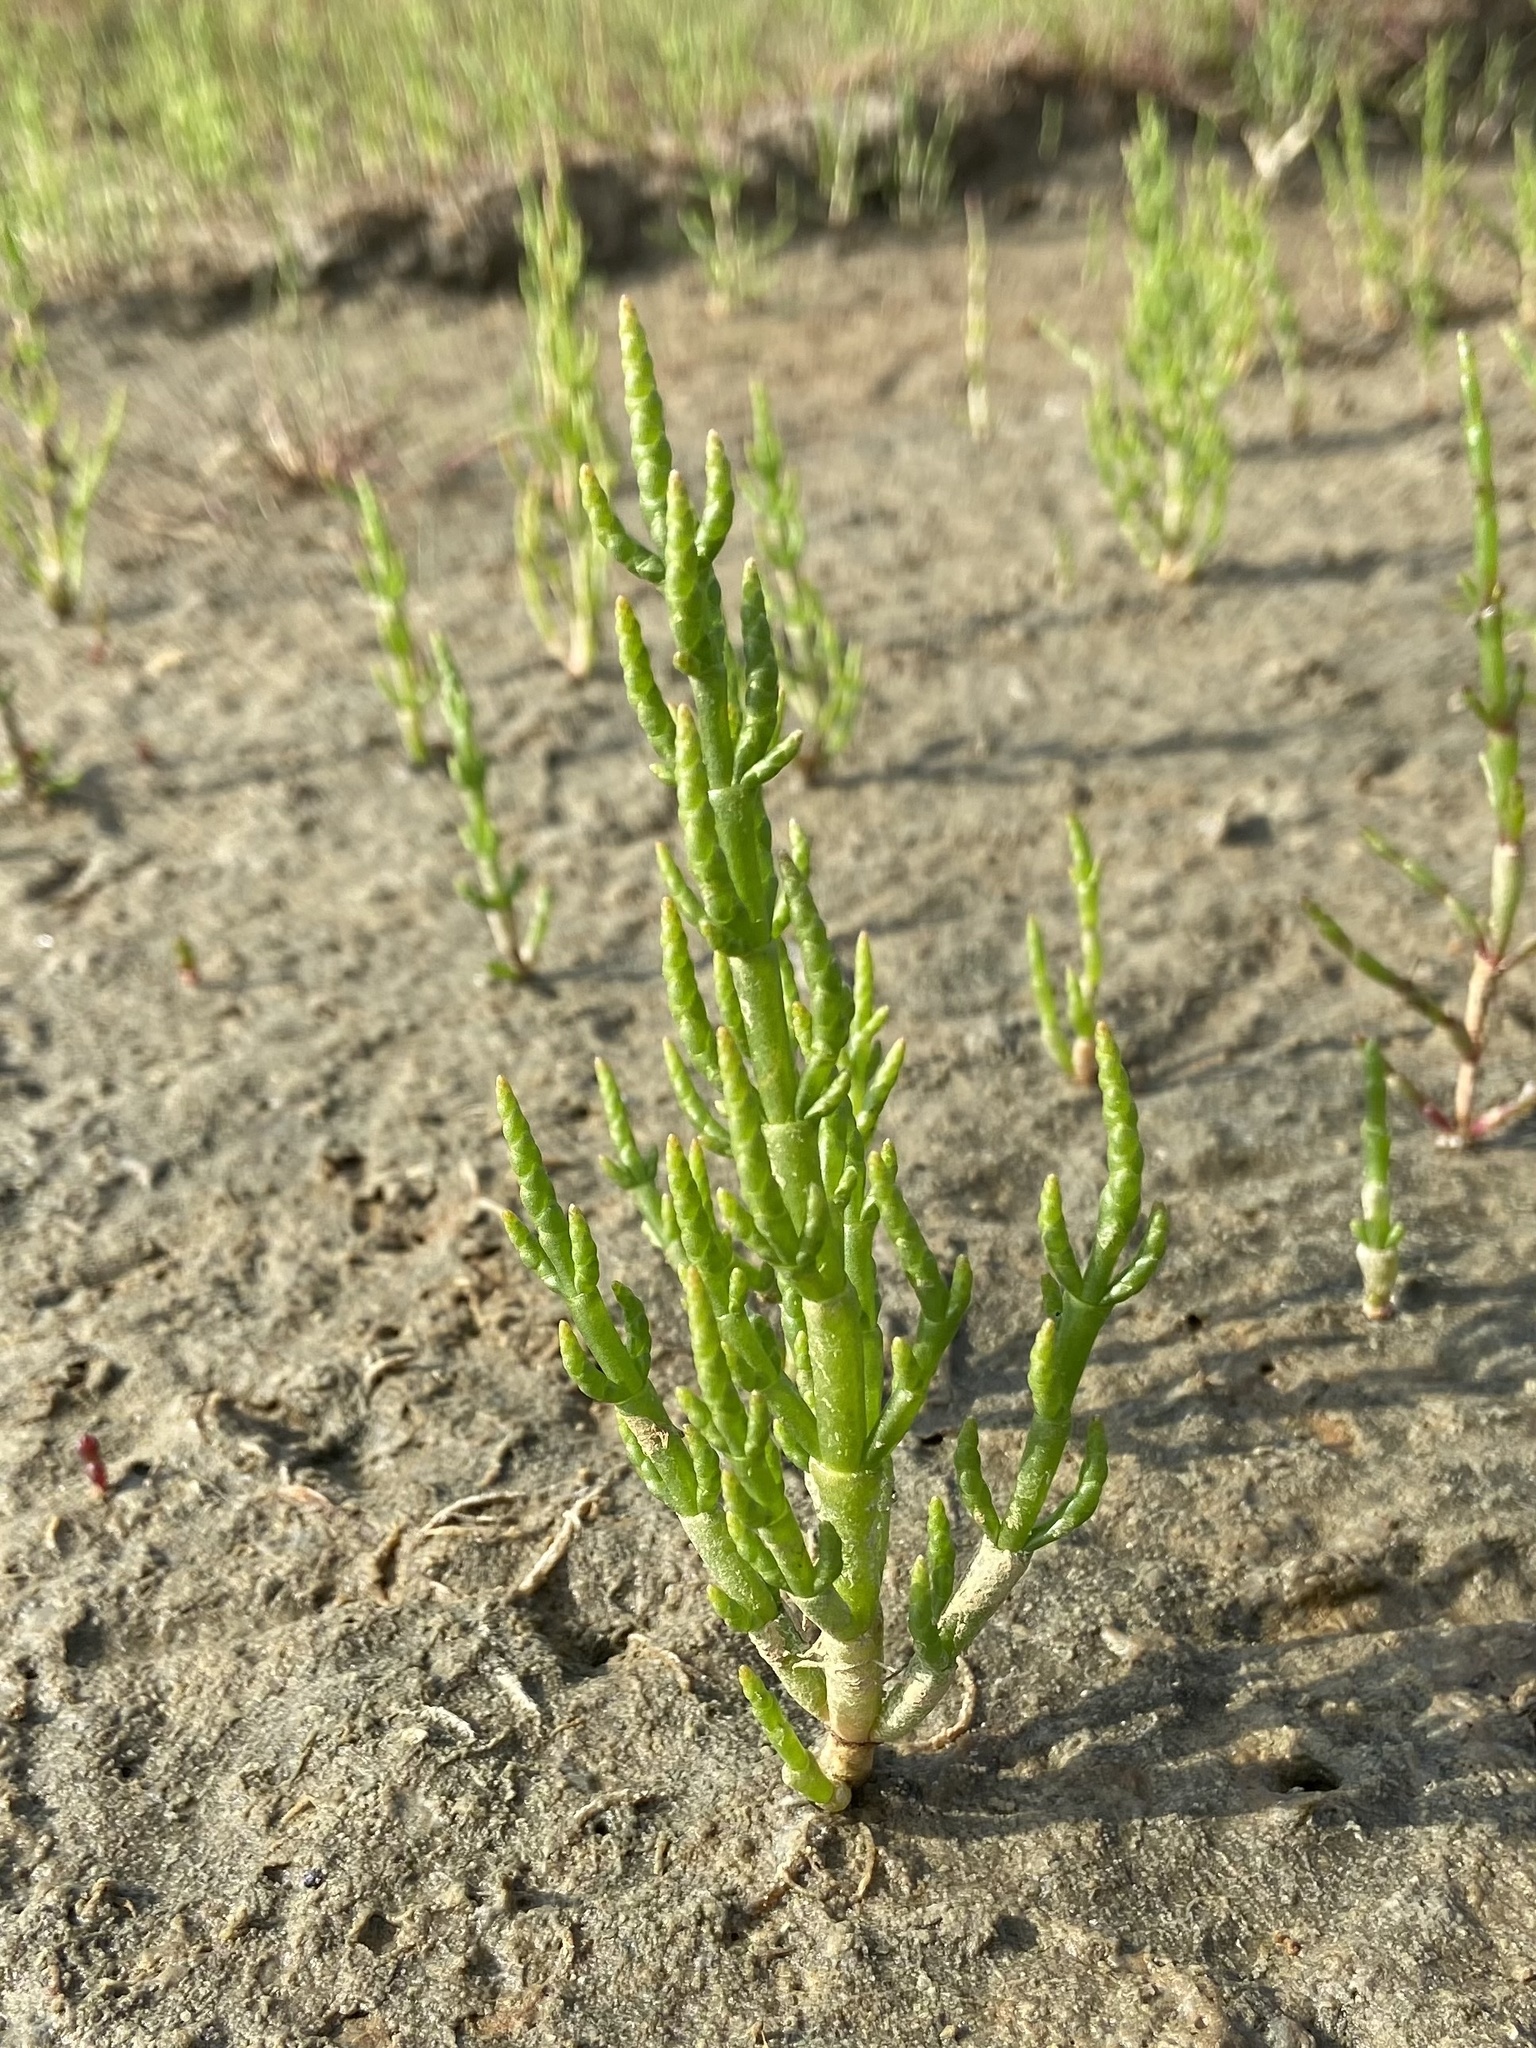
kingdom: Plantae
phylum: Tracheophyta
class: Magnoliopsida
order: Caryophyllales
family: Amaranthaceae
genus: Salicornia
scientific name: Salicornia europaea
